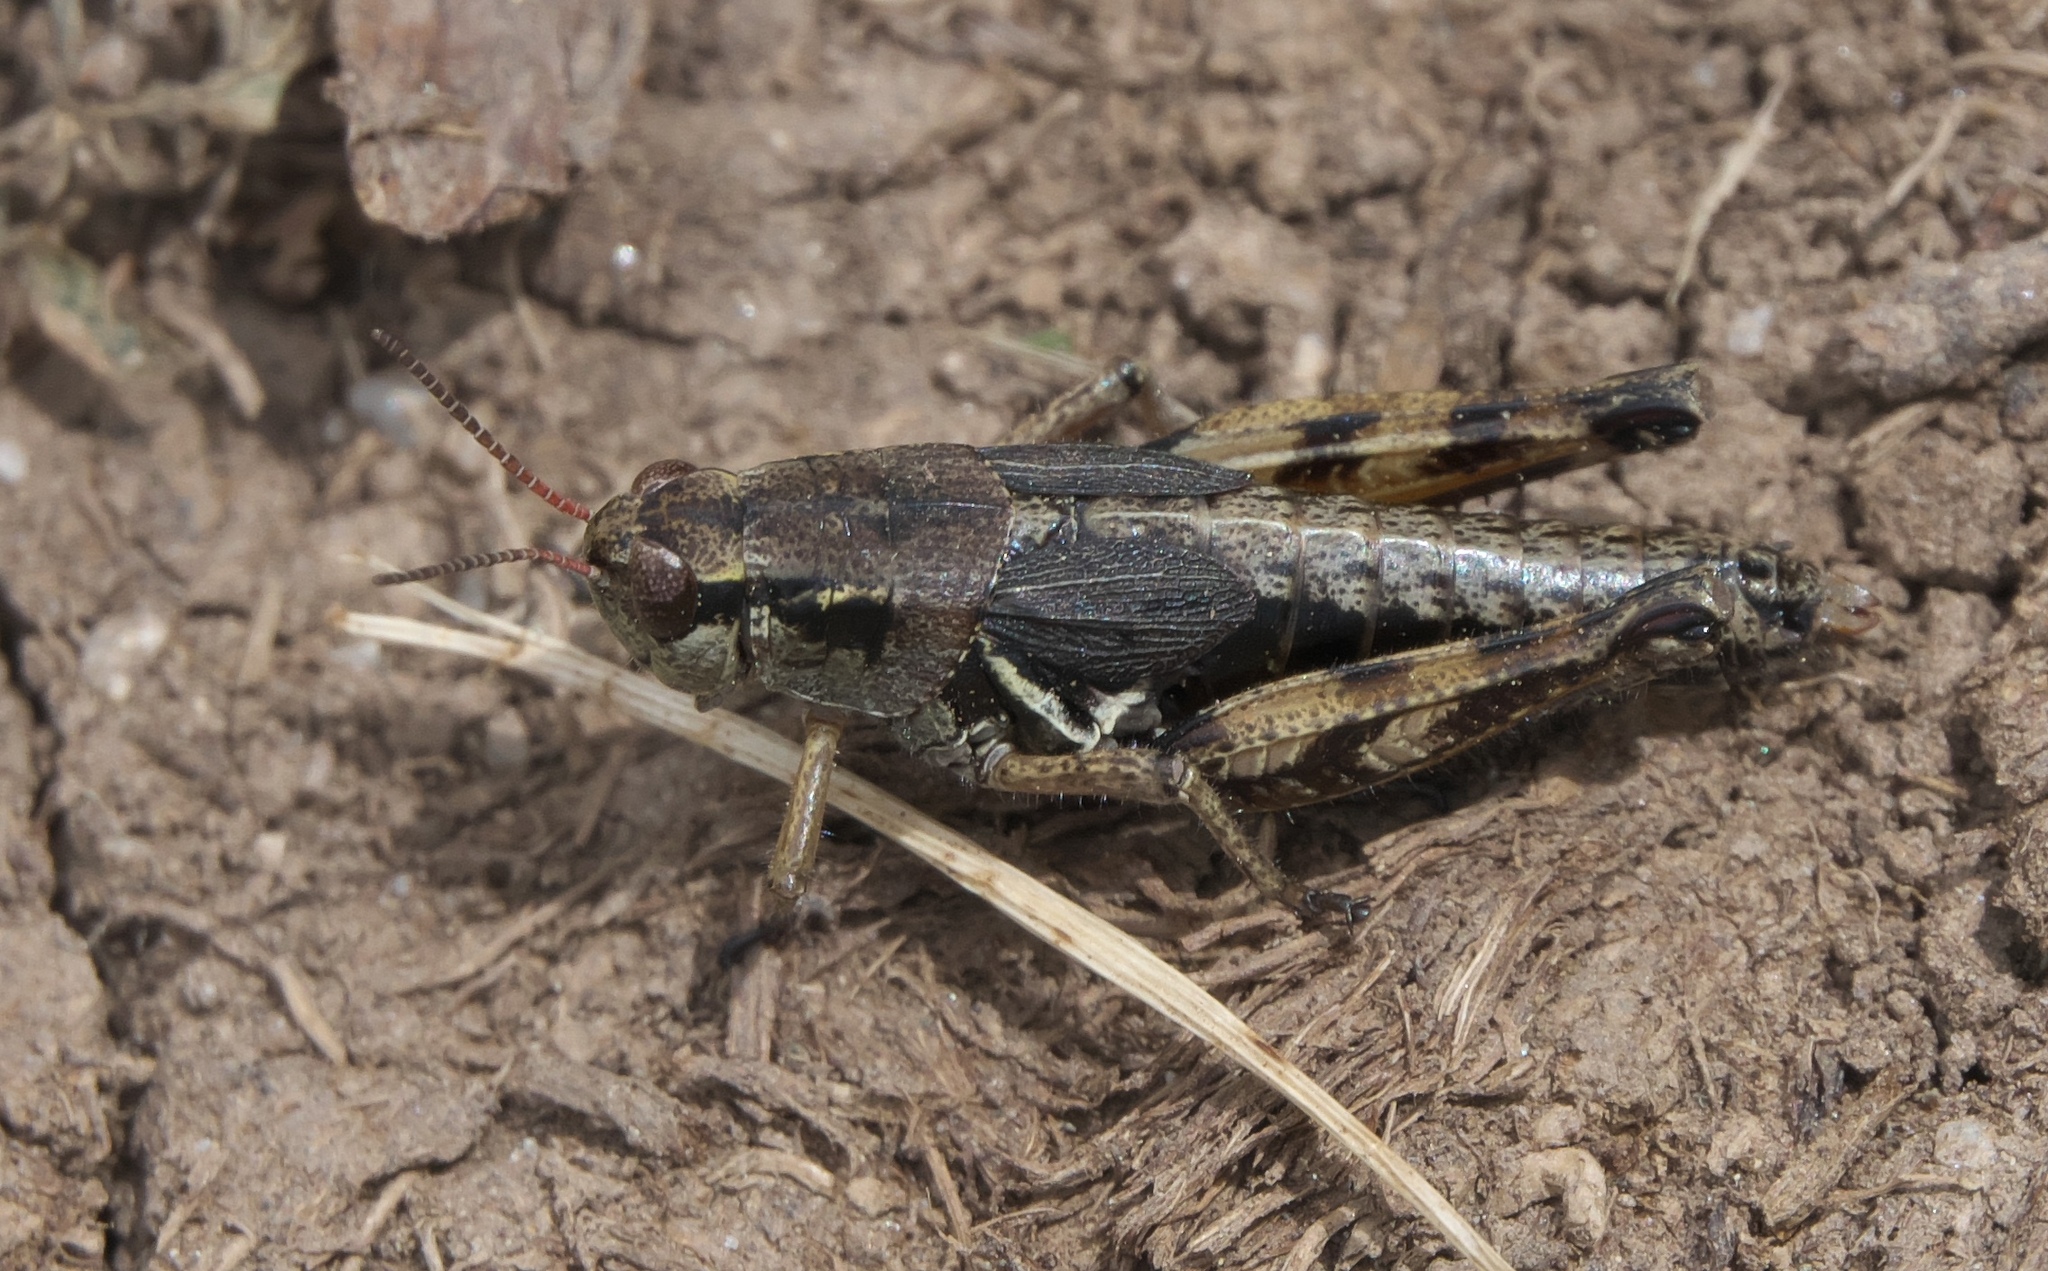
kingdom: Animalia
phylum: Arthropoda
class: Insecta
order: Orthoptera
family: Acrididae
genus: Melanoplus
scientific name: Melanoplus oregonensis
